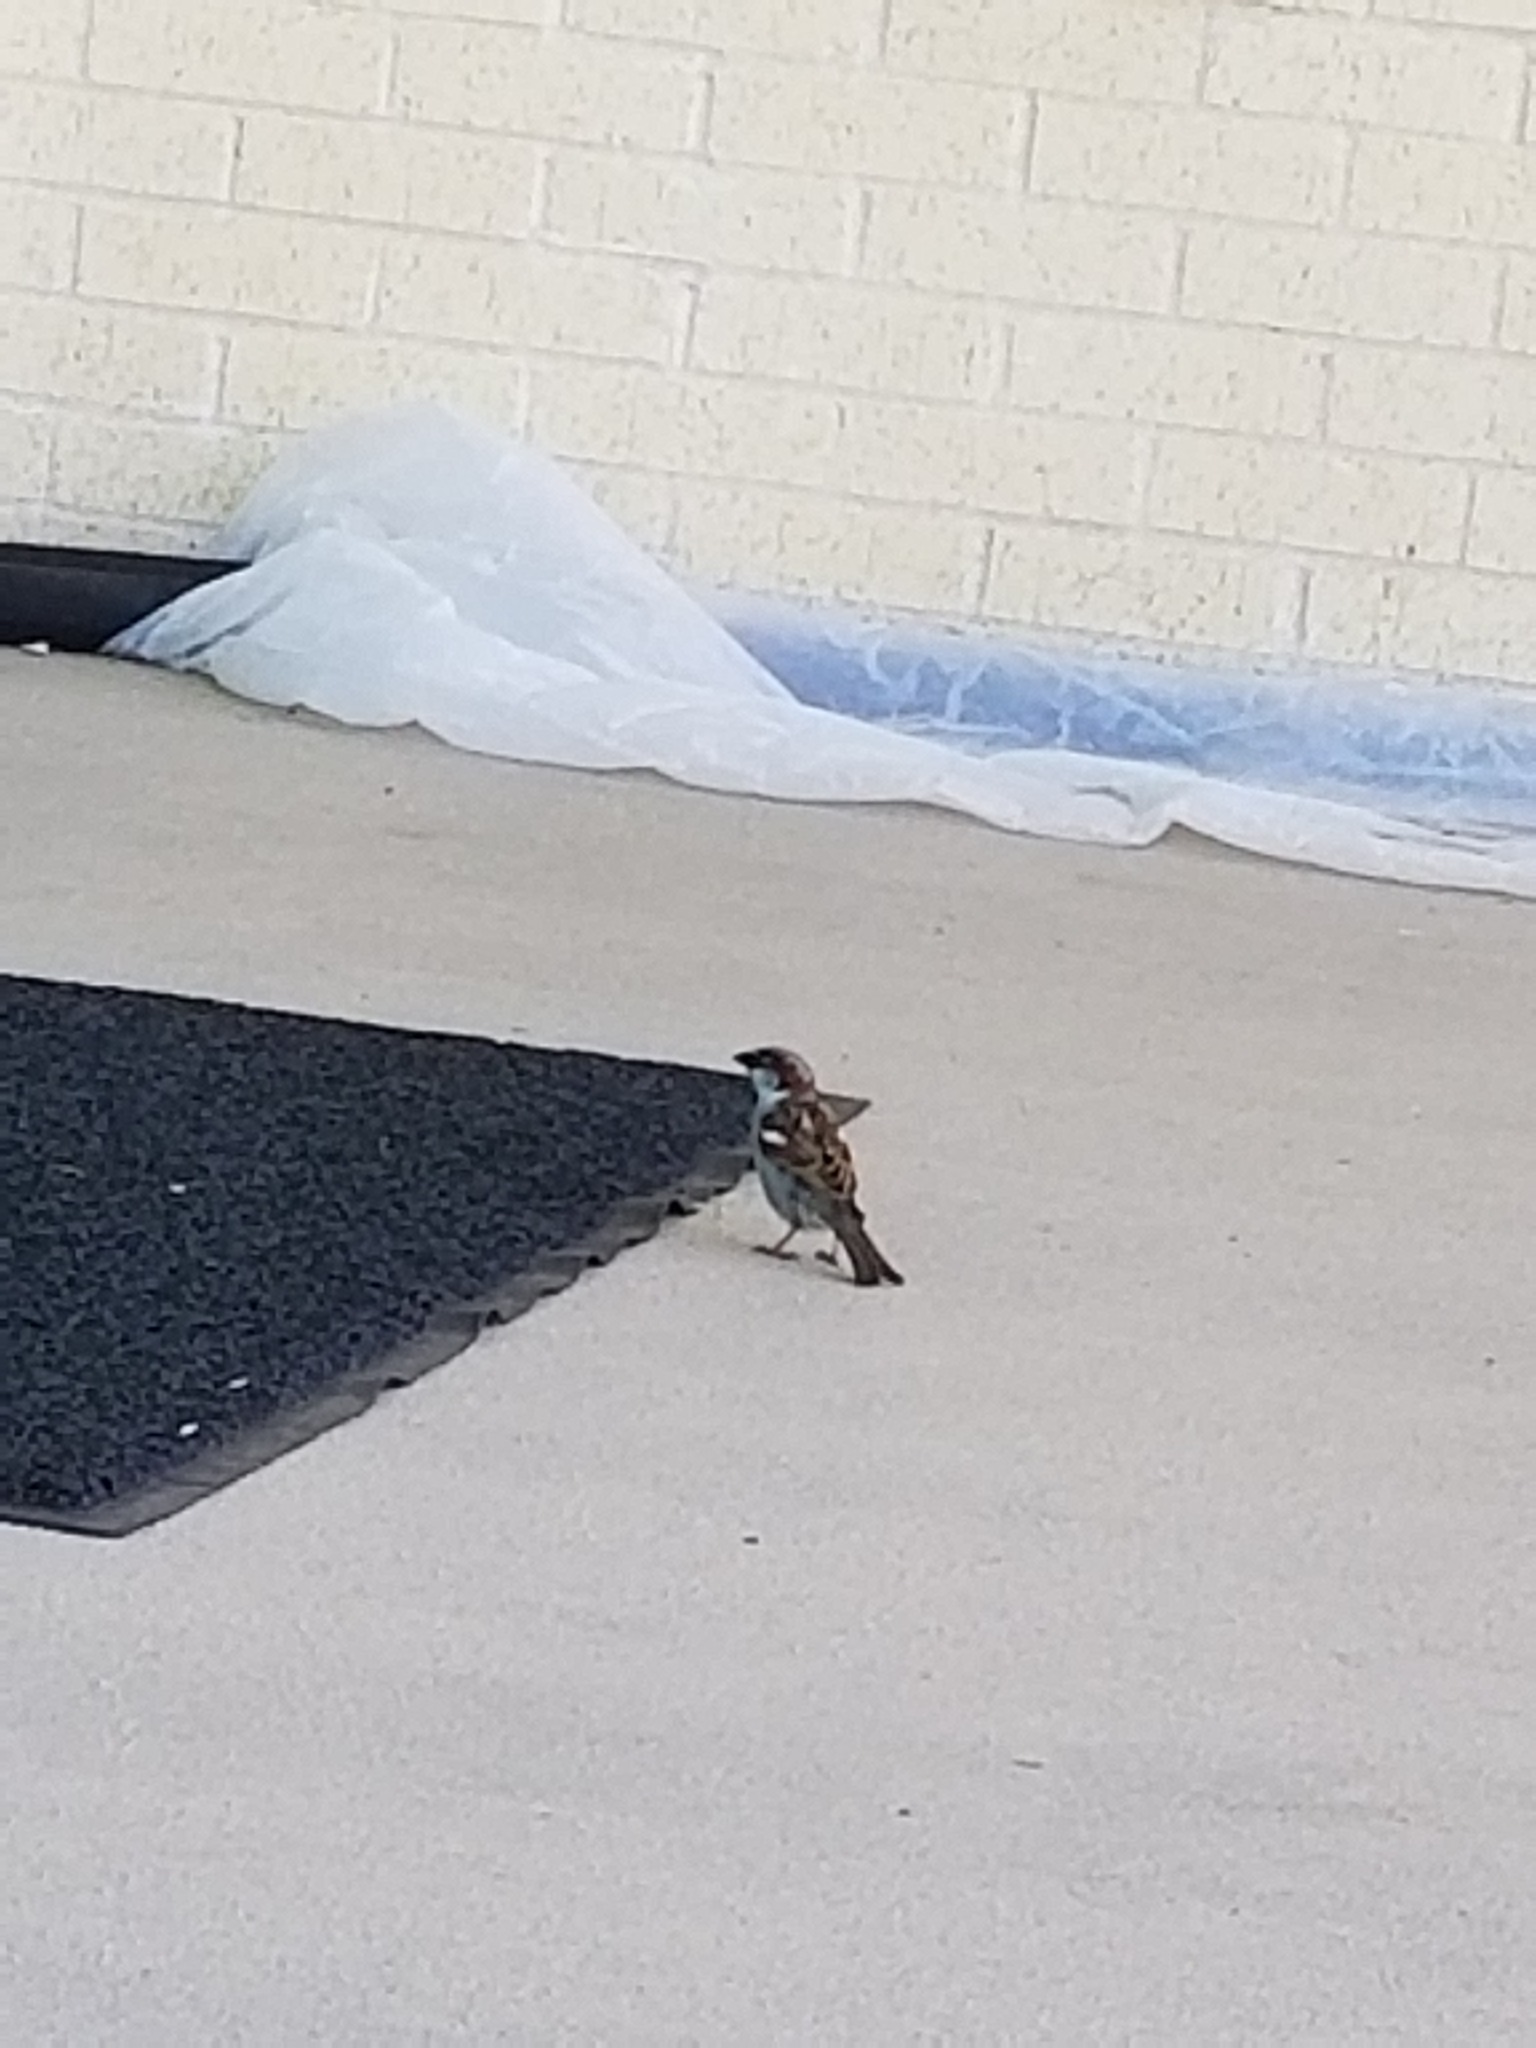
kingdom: Animalia
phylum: Chordata
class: Aves
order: Passeriformes
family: Passeridae
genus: Passer
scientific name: Passer domesticus
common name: House sparrow
